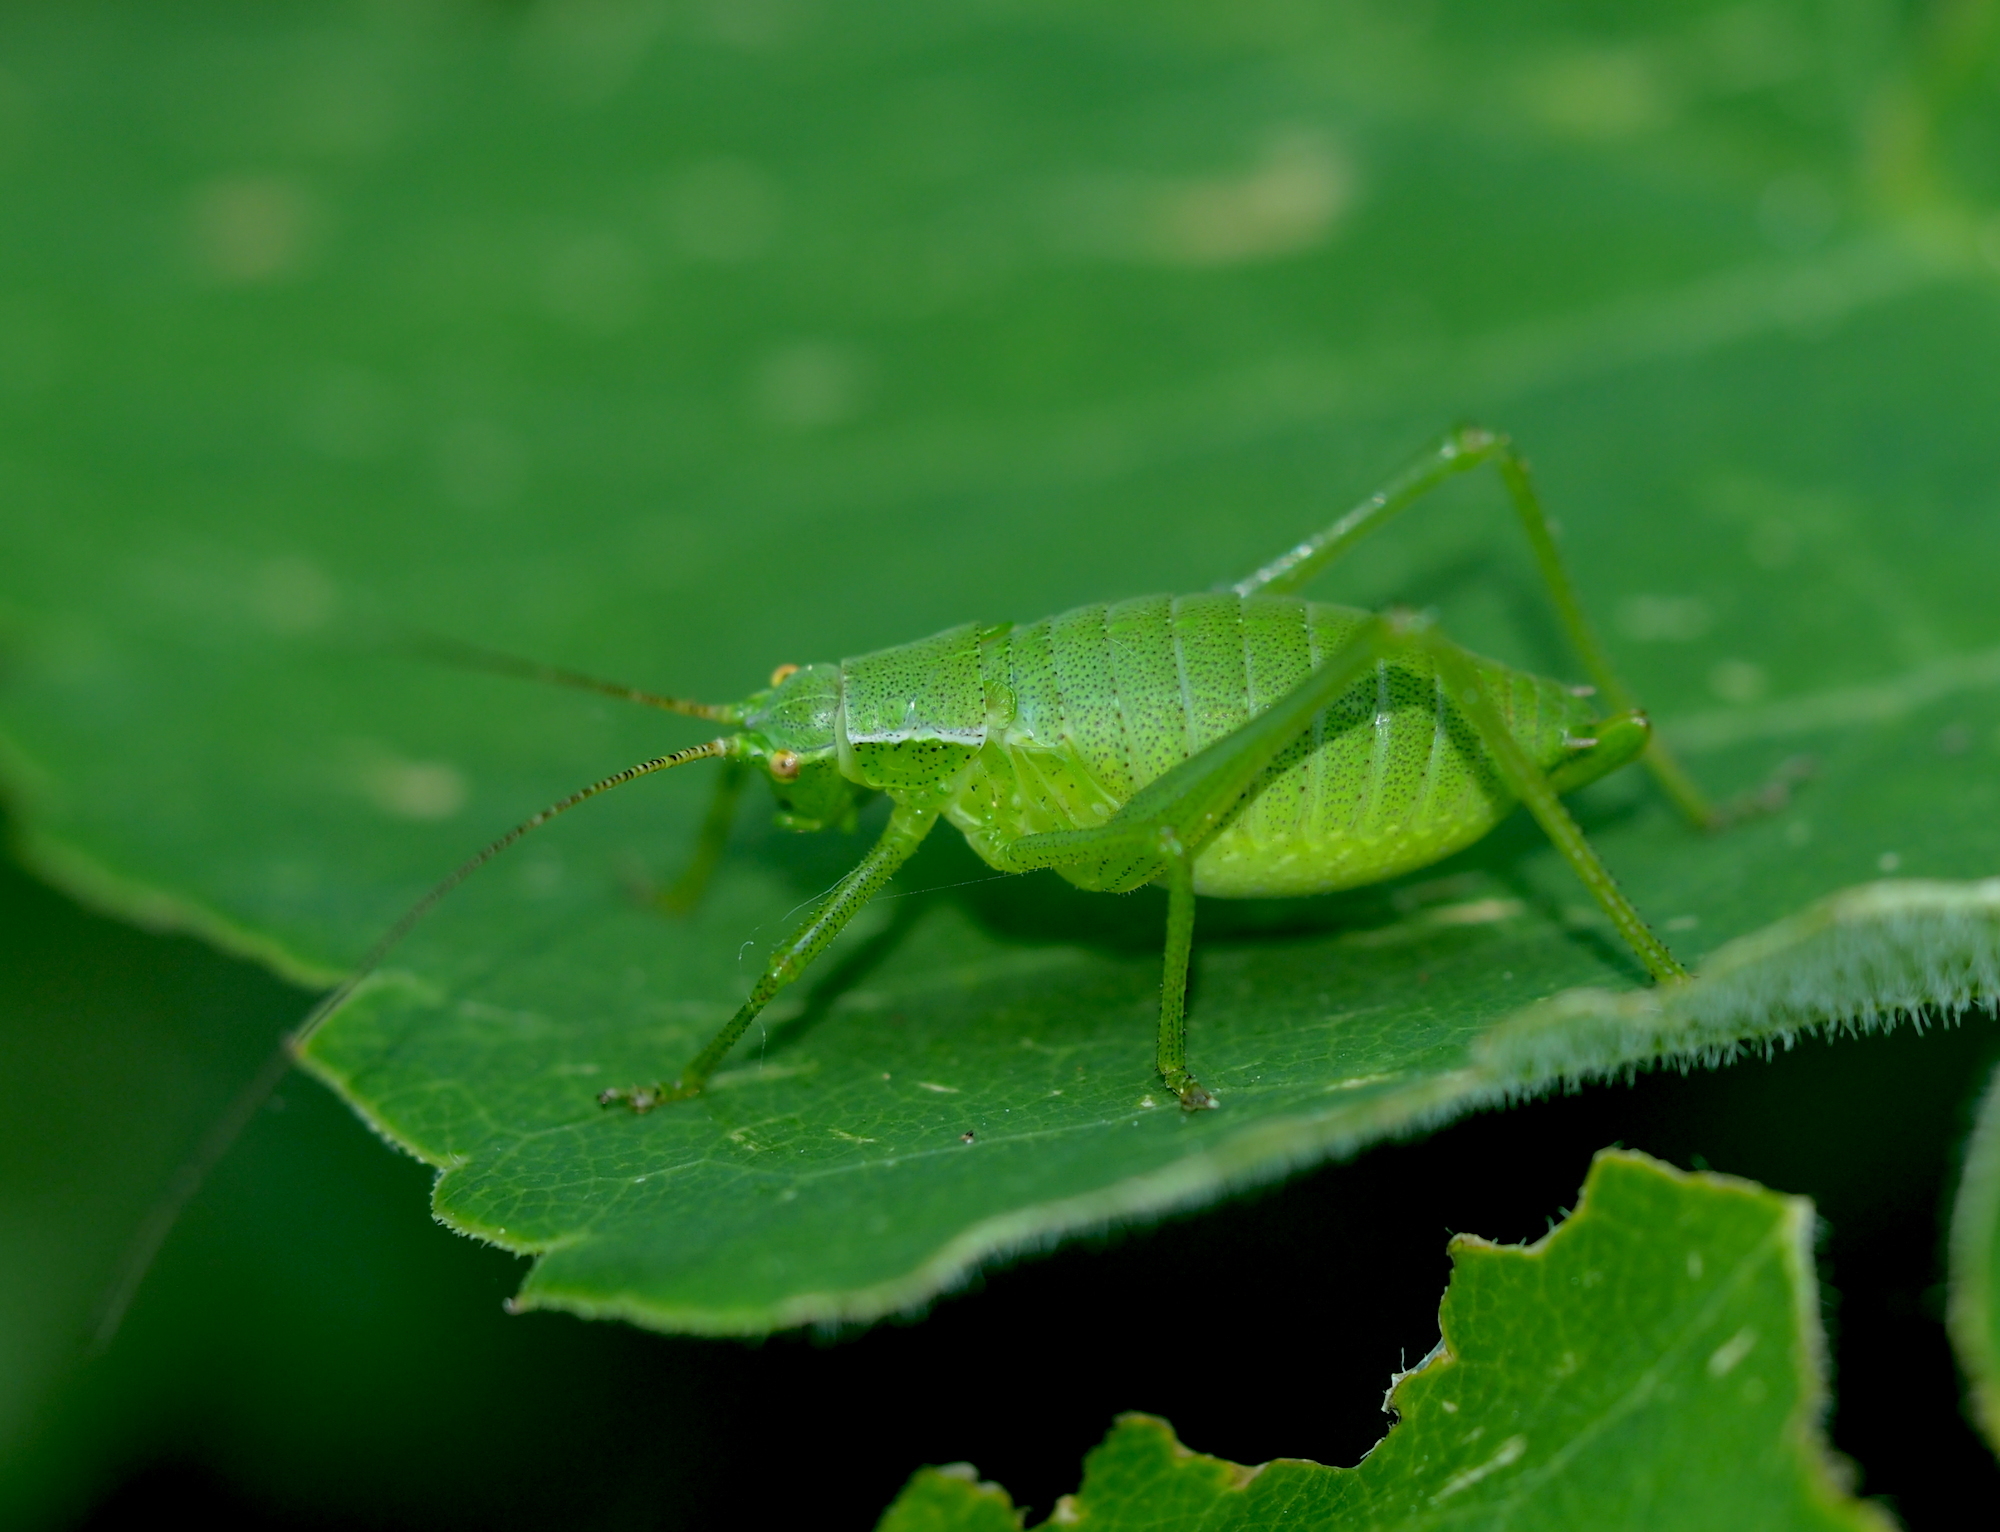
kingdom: Animalia
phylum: Arthropoda
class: Insecta
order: Orthoptera
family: Tettigoniidae
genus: Isophya
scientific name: Isophya pienensis
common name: Pieninsky' plump bush-cricket
